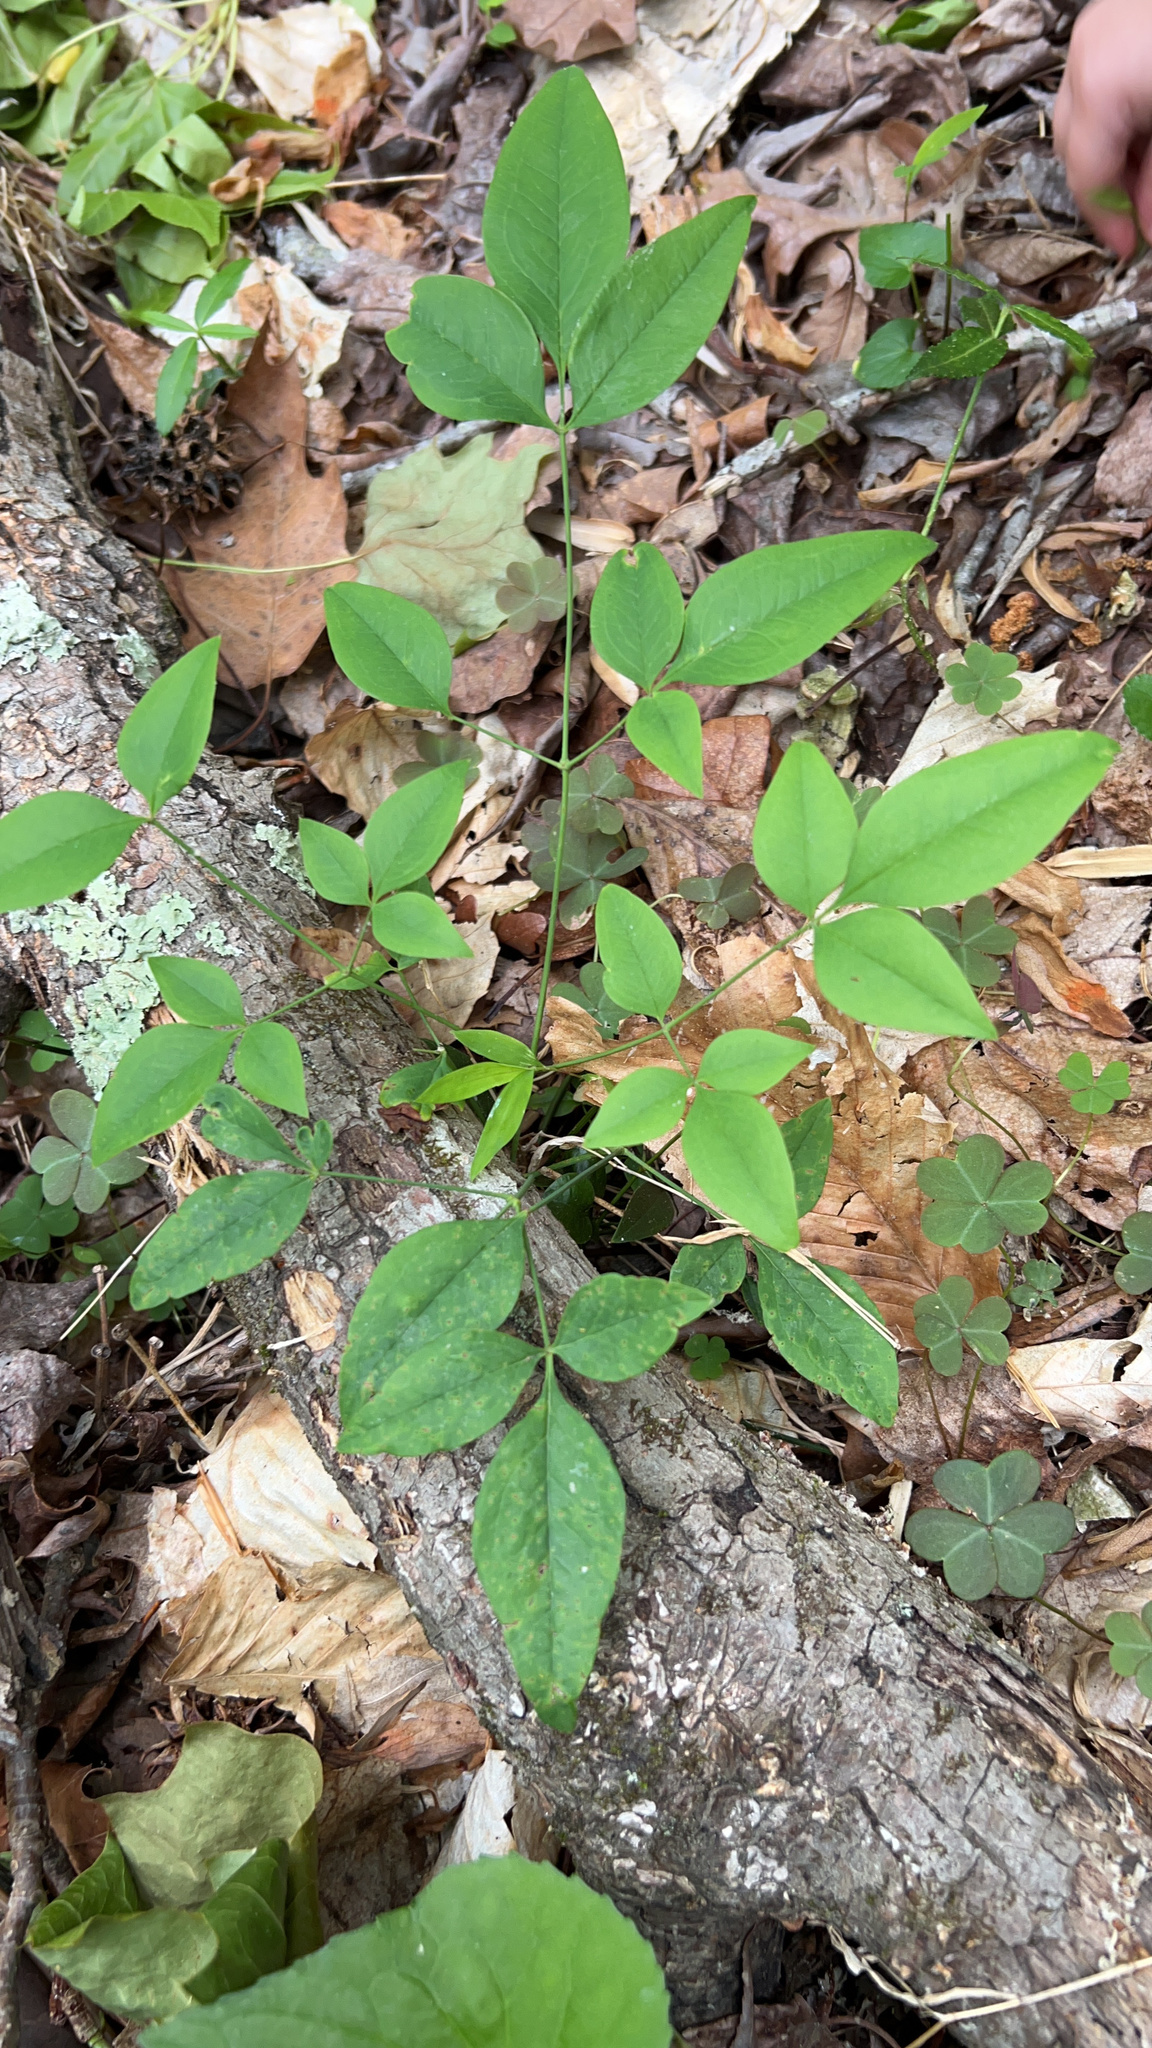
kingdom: Plantae
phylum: Tracheophyta
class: Magnoliopsida
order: Ranunculales
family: Berberidaceae
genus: Nandina
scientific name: Nandina domestica
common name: Sacred bamboo
